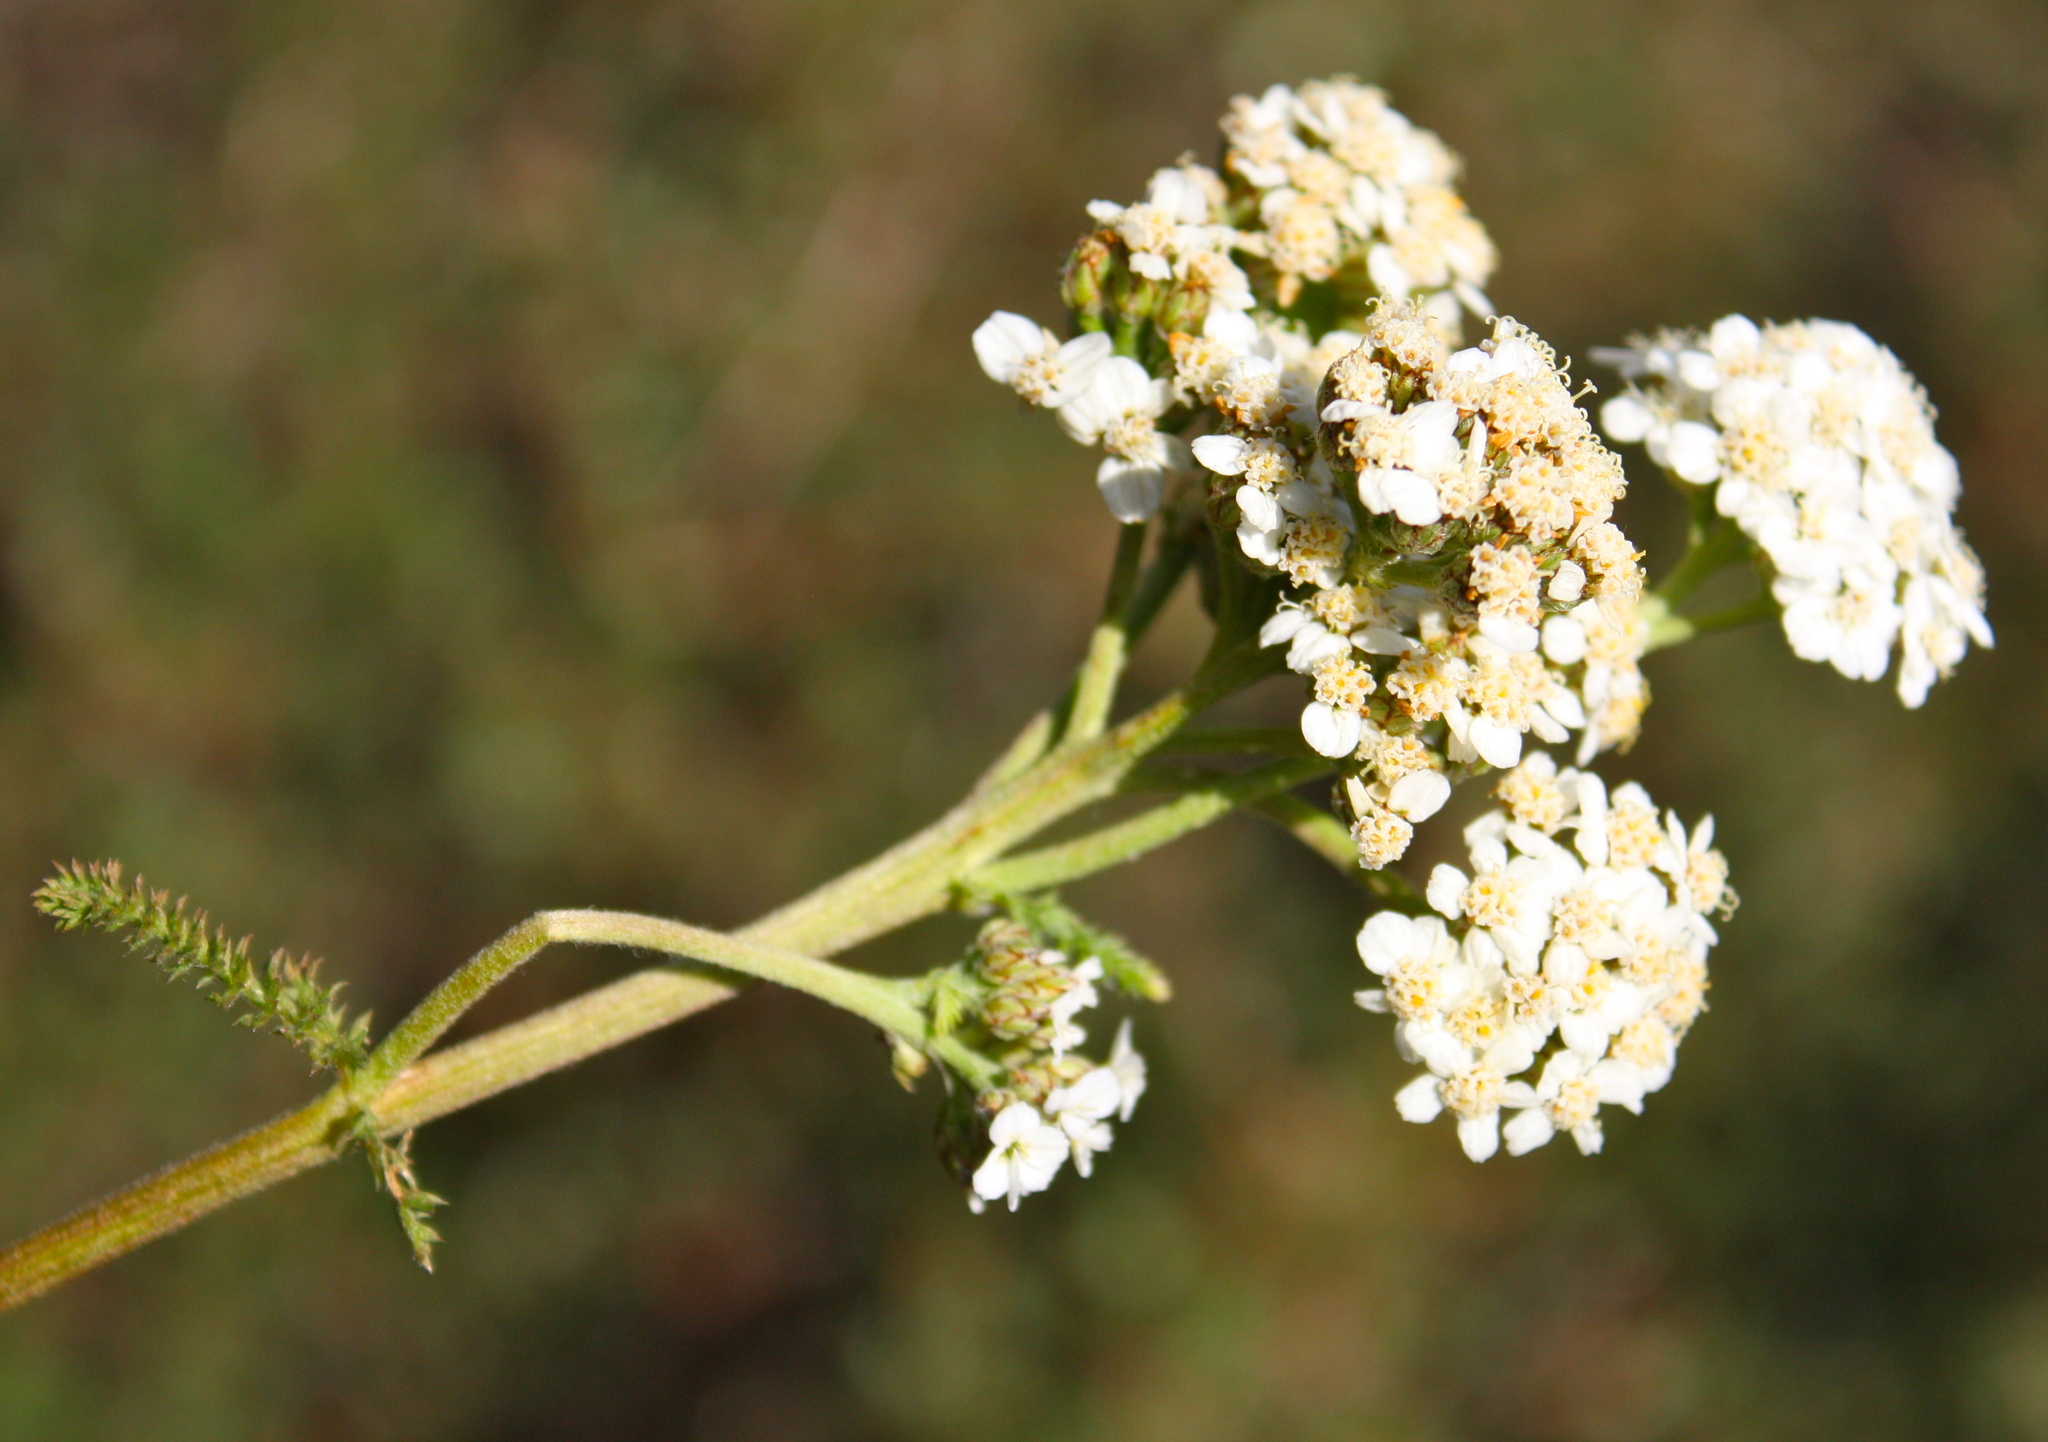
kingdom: Plantae
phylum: Tracheophyta
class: Magnoliopsida
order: Asterales
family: Asteraceae
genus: Achillea
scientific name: Achillea millefolium
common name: Yarrow
